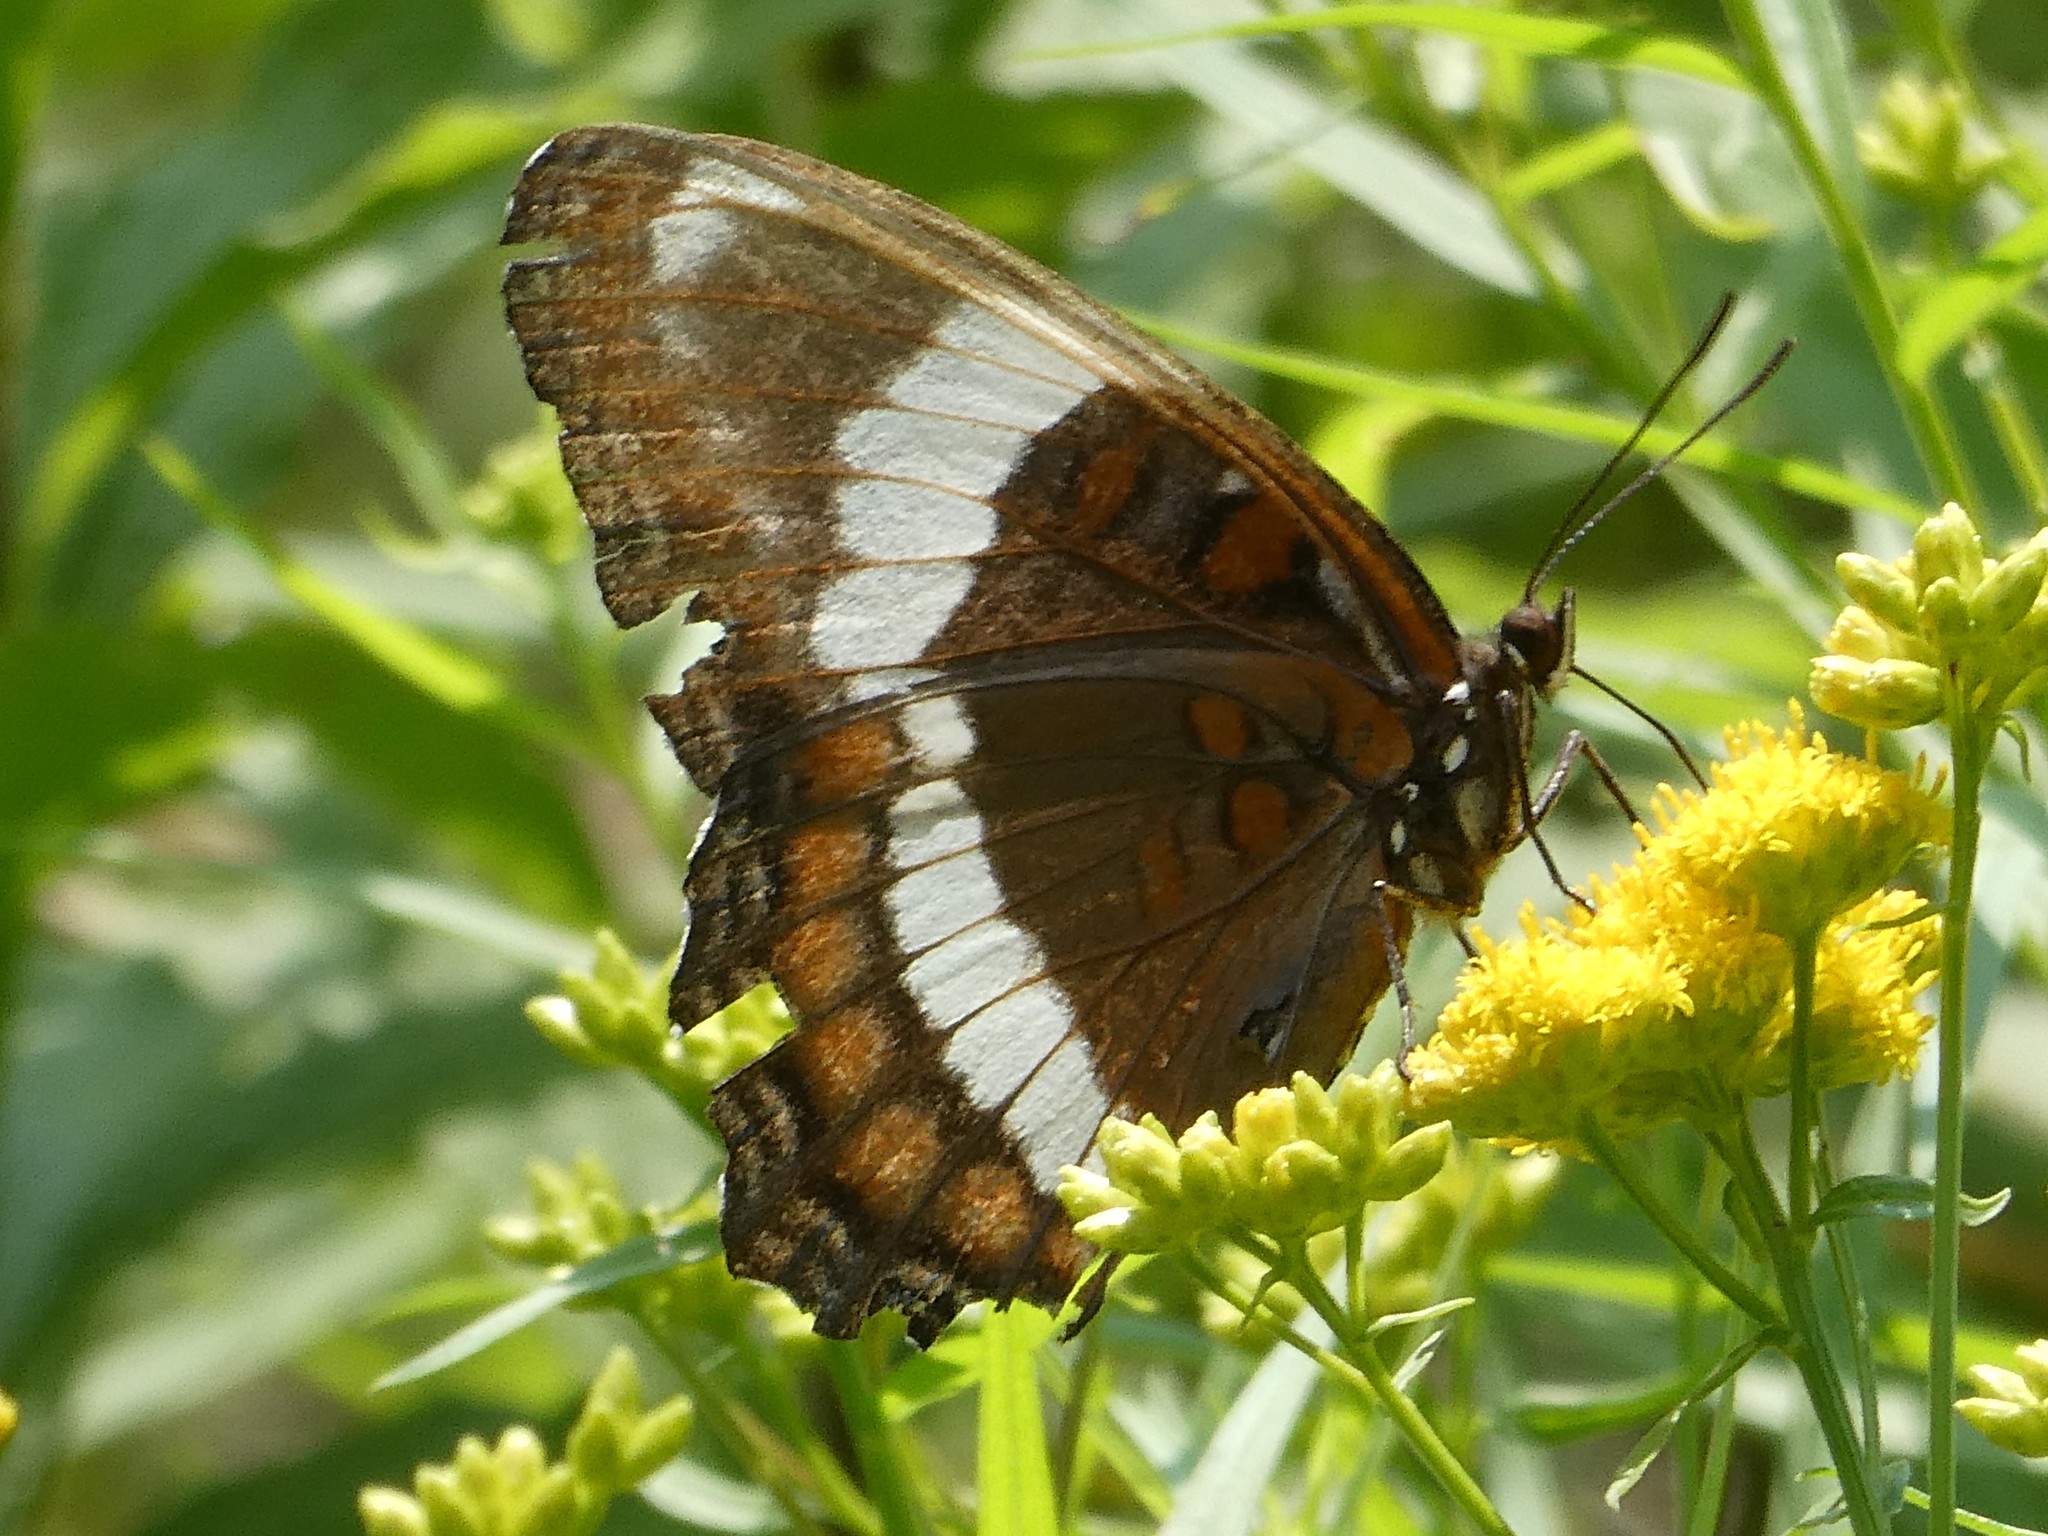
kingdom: Animalia
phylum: Arthropoda
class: Insecta
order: Lepidoptera
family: Nymphalidae
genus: Limenitis
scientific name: Limenitis arthemis
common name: Red-spotted admiral
